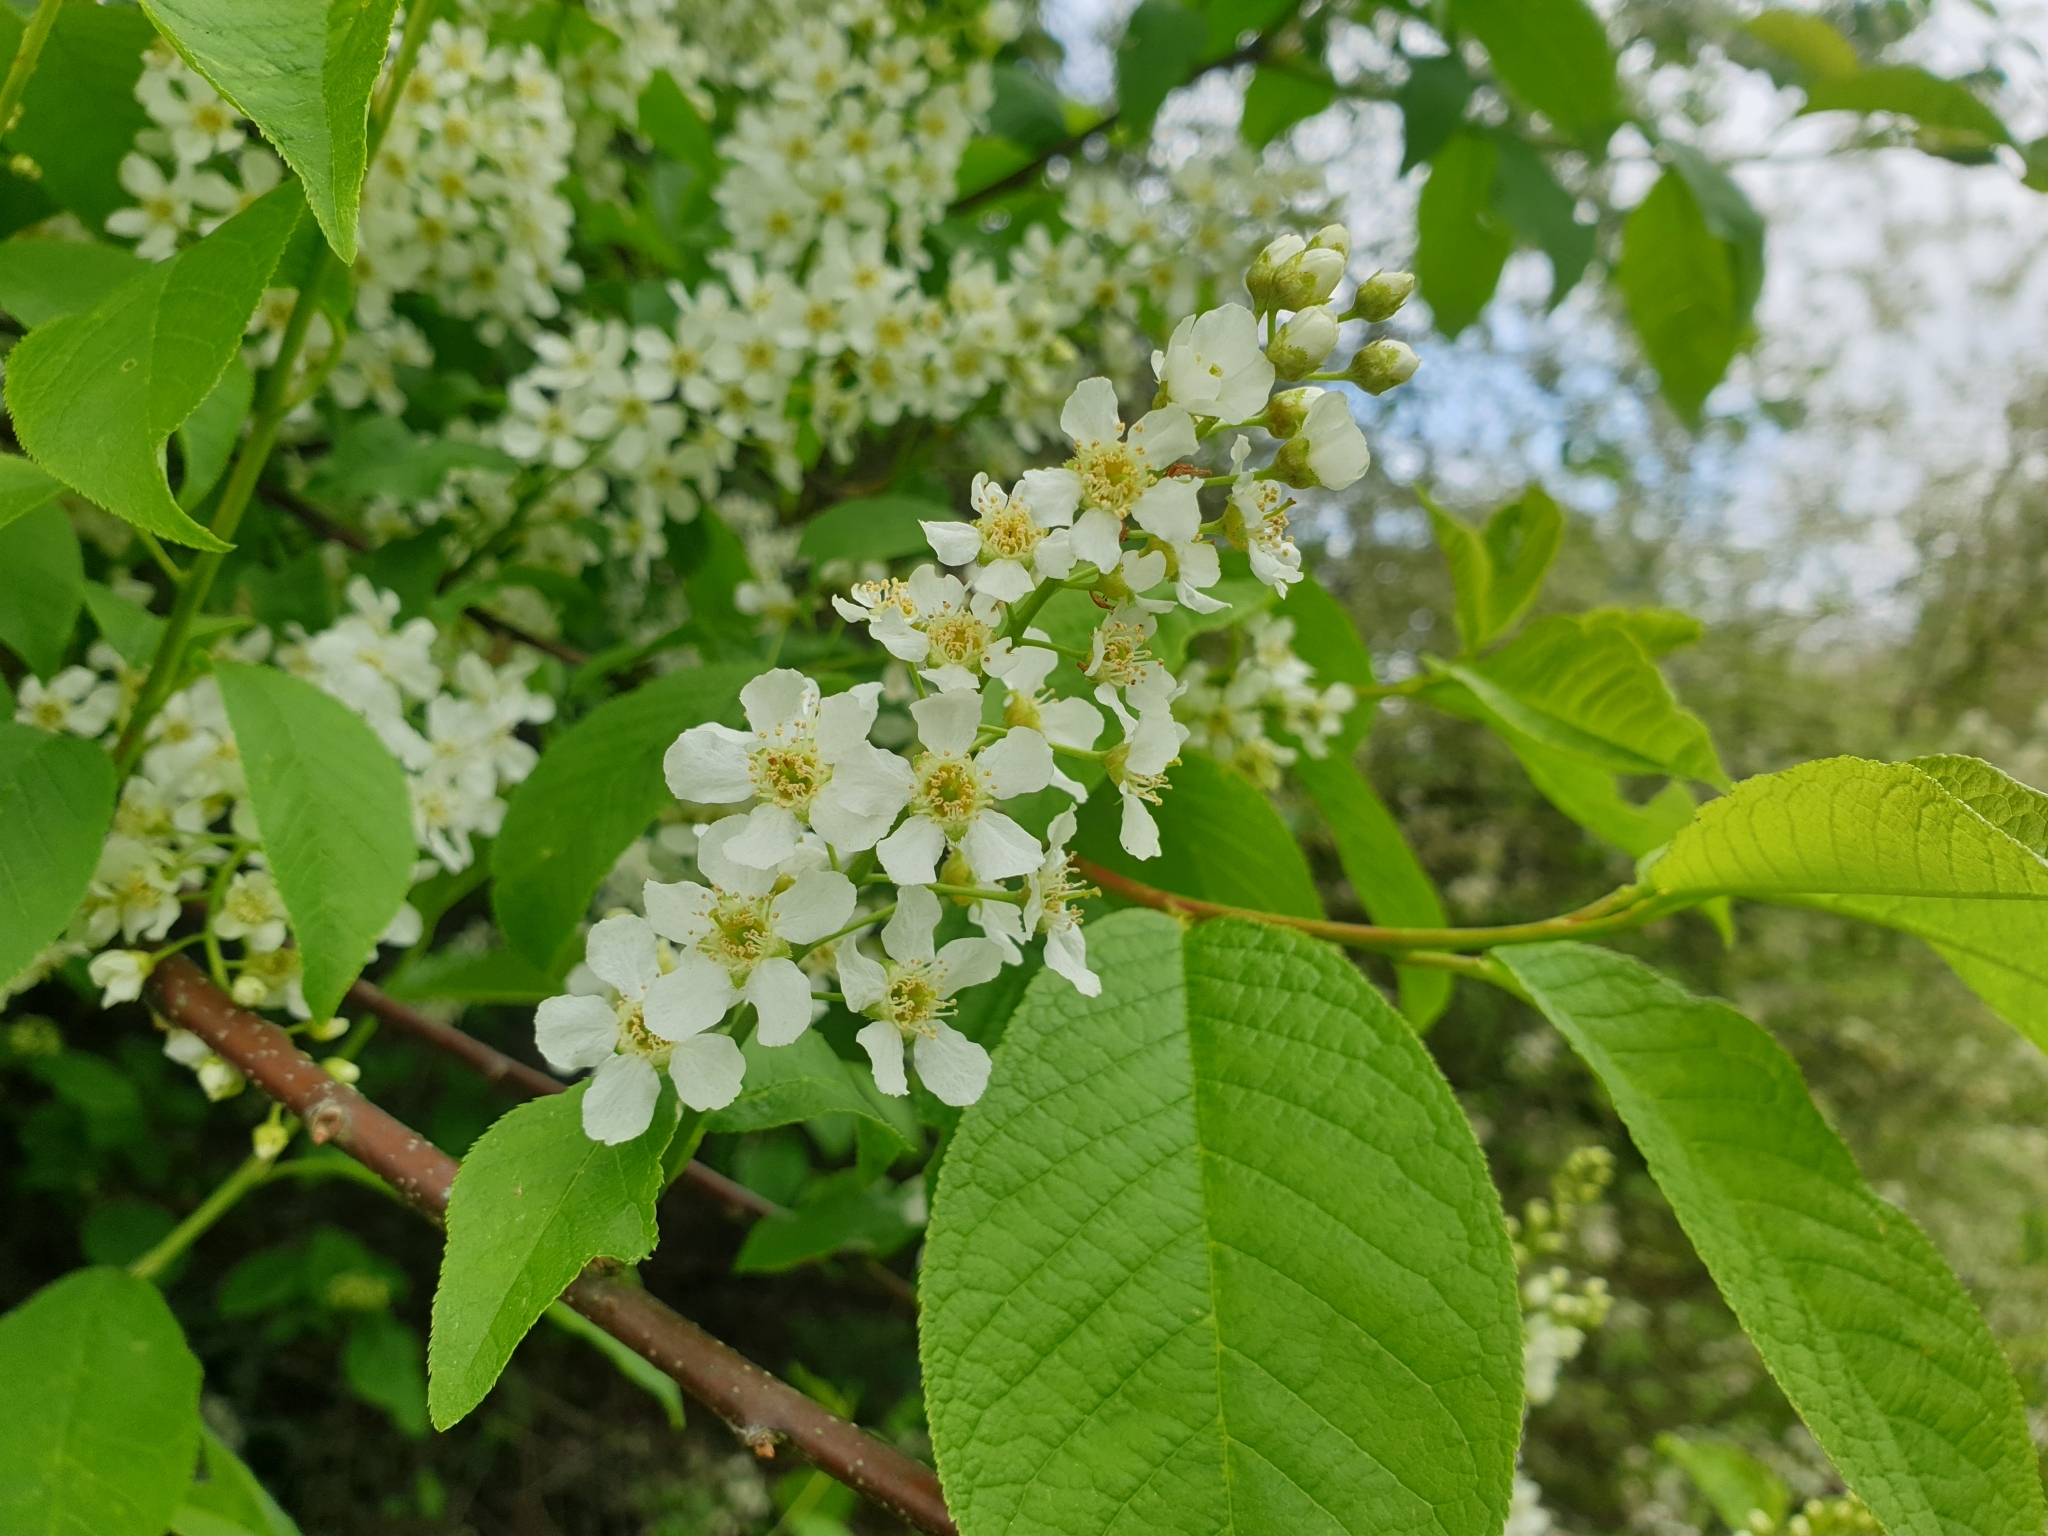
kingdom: Plantae
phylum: Tracheophyta
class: Magnoliopsida
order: Rosales
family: Rosaceae
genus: Prunus
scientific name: Prunus padus
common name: Bird cherry
